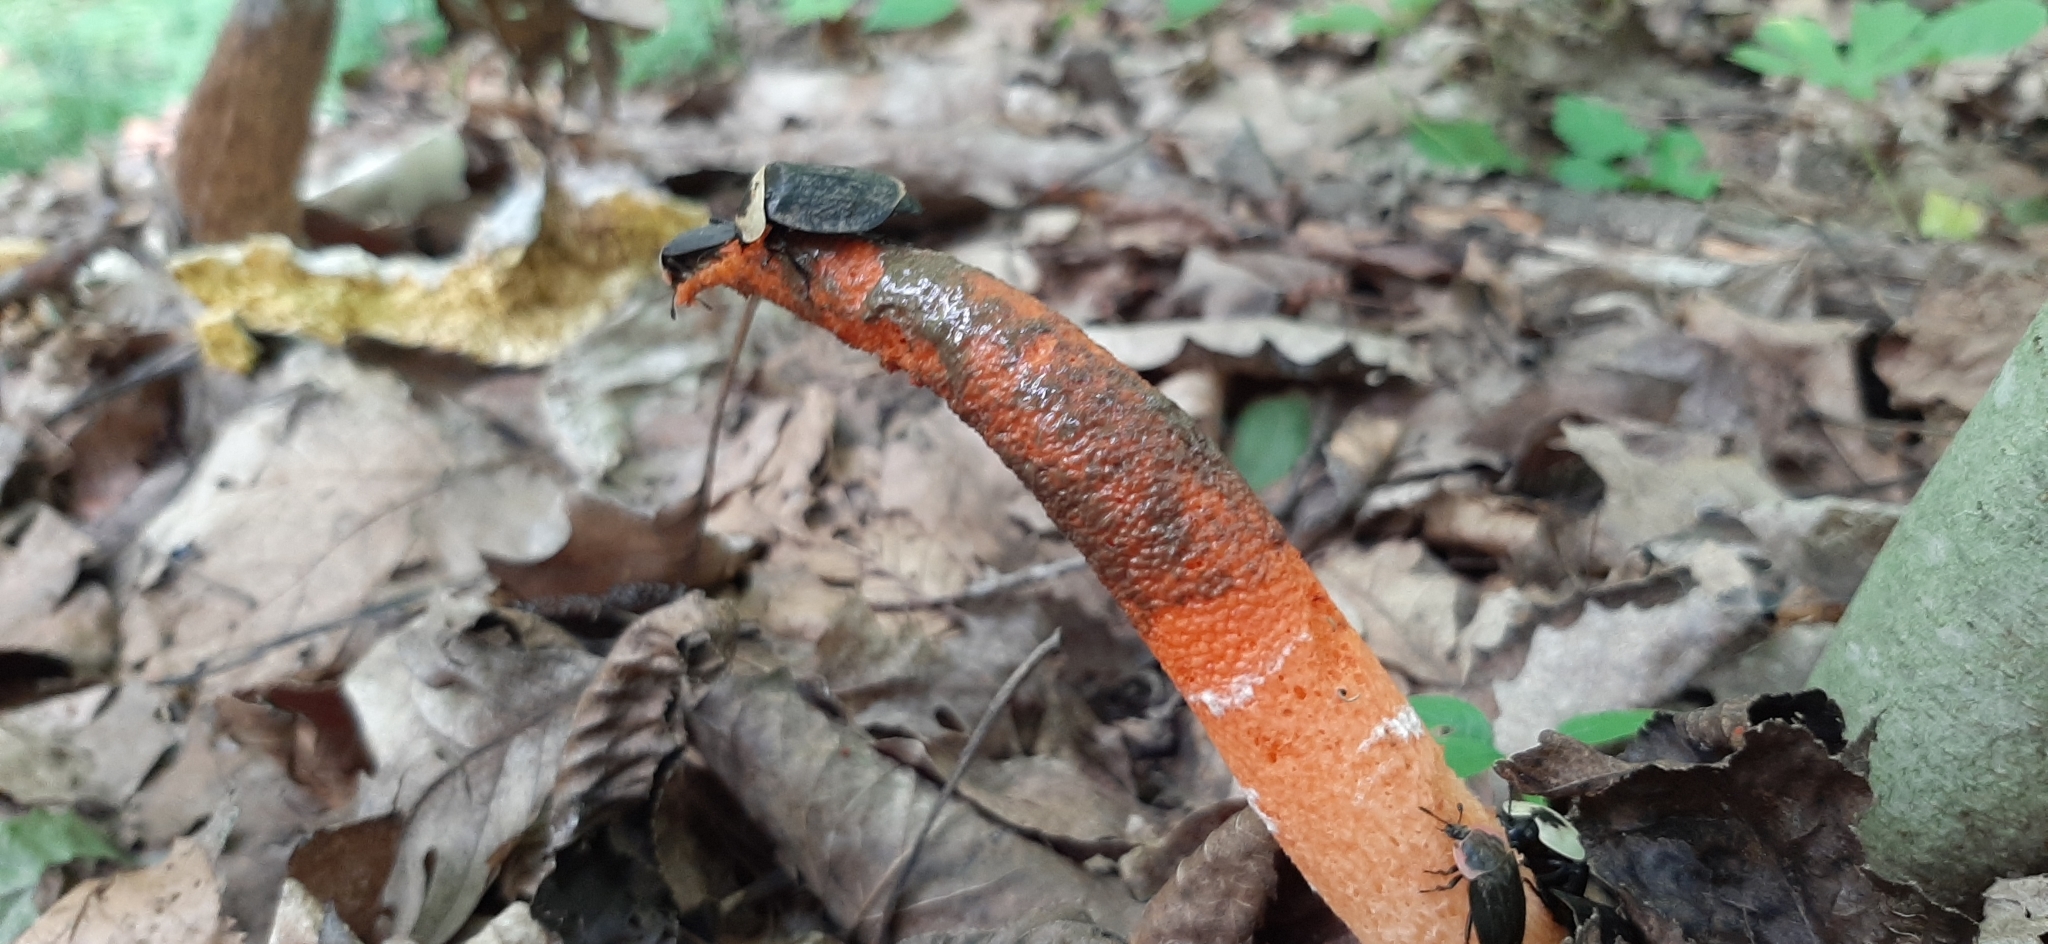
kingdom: Fungi
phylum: Basidiomycota
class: Agaricomycetes
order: Phallales
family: Phallaceae
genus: Mutinus
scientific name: Mutinus elegans
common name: Devil's dipstick
